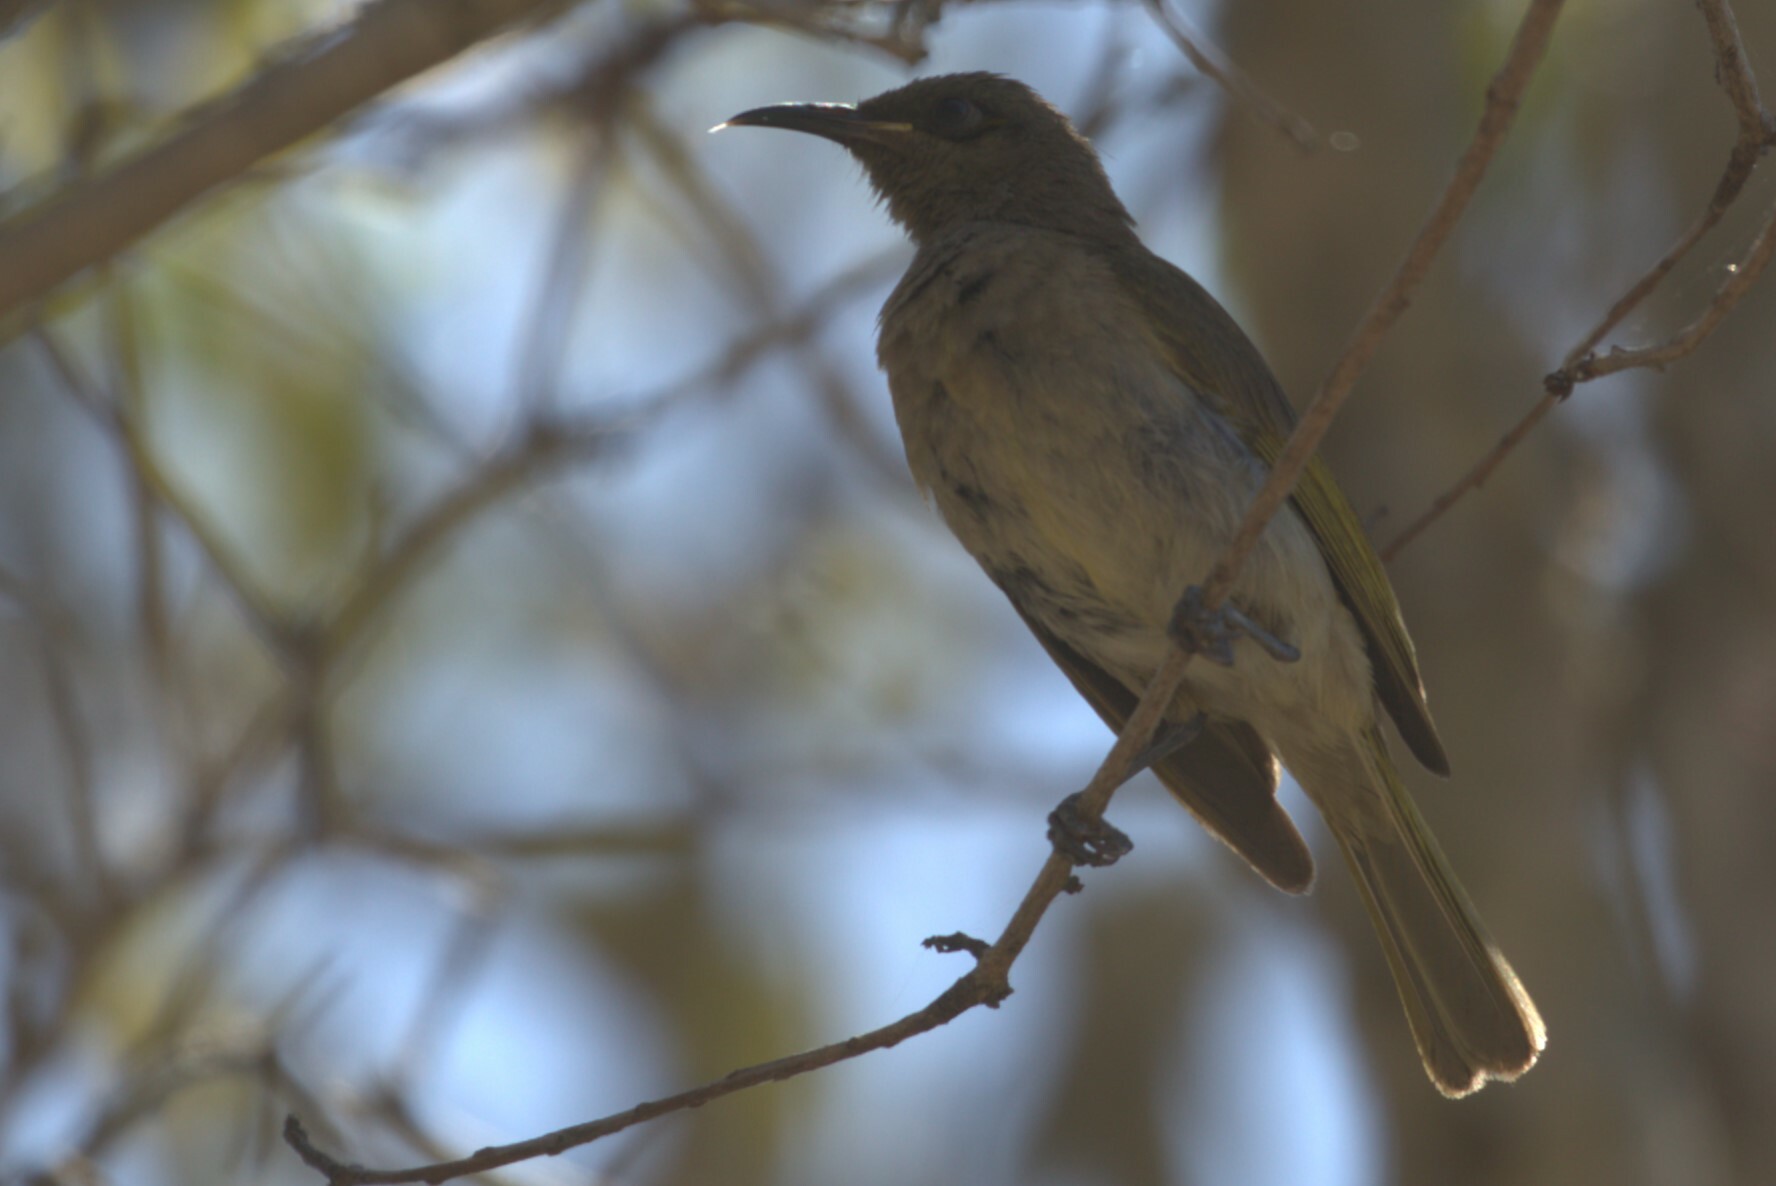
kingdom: Animalia
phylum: Chordata
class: Aves
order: Passeriformes
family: Meliphagidae
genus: Lichmera
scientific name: Lichmera indistincta
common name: Brown honeyeater
